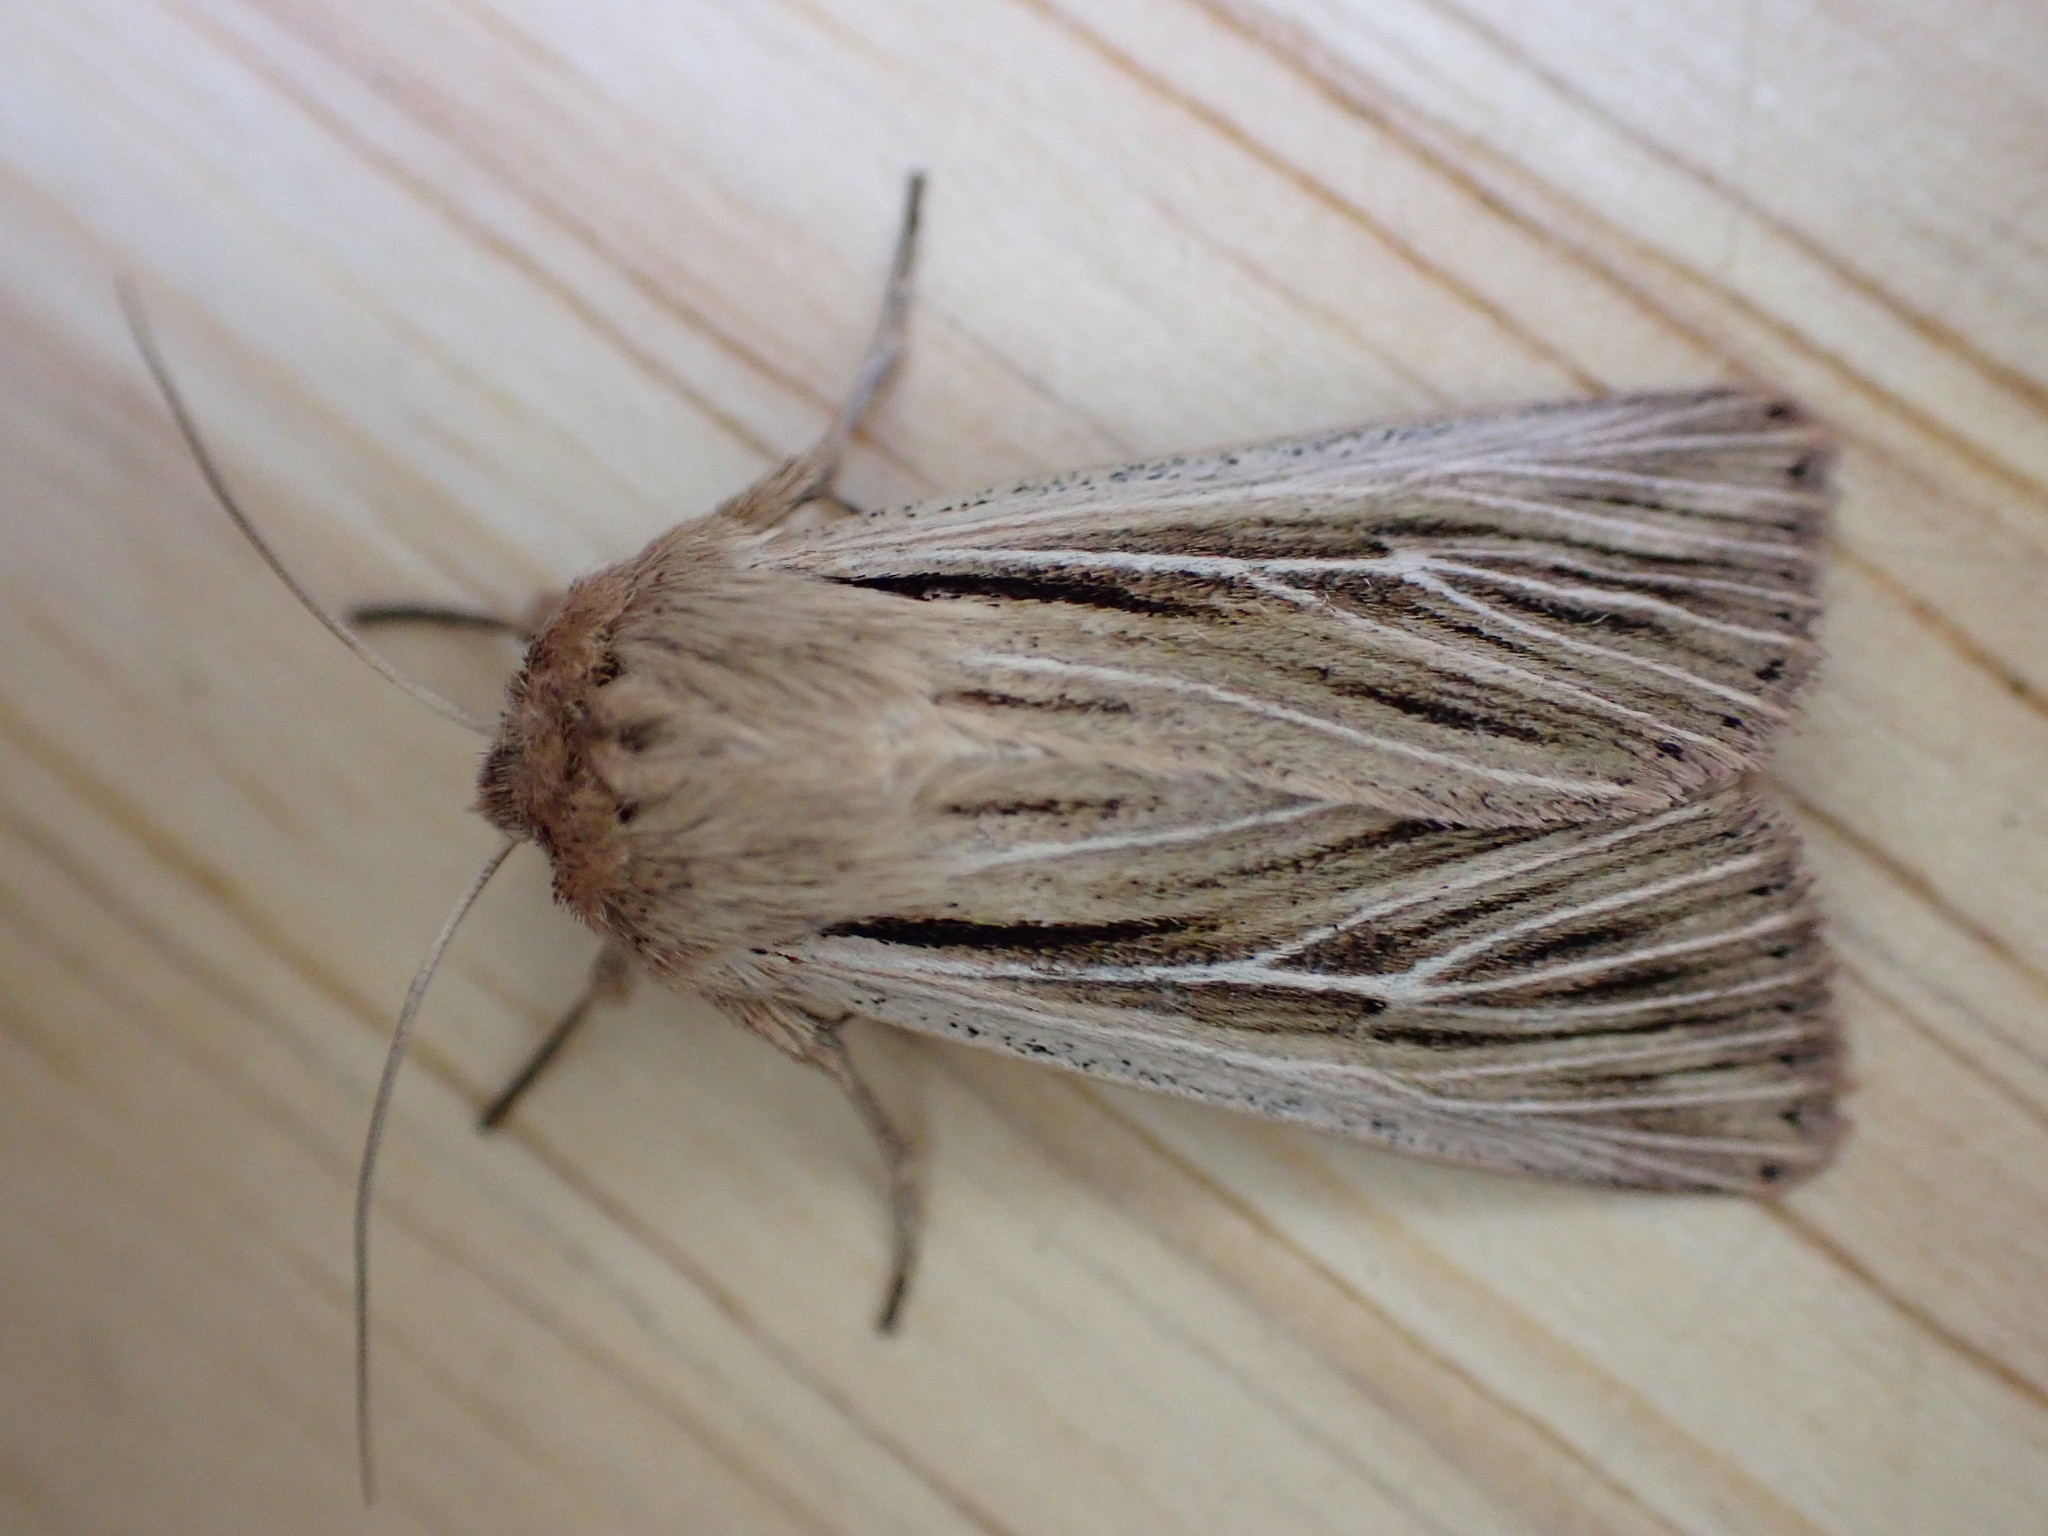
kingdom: Animalia
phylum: Arthropoda
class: Insecta
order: Lepidoptera
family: Noctuidae
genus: Leucania
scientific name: Leucania comma
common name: Shoulder-striped wainscot
